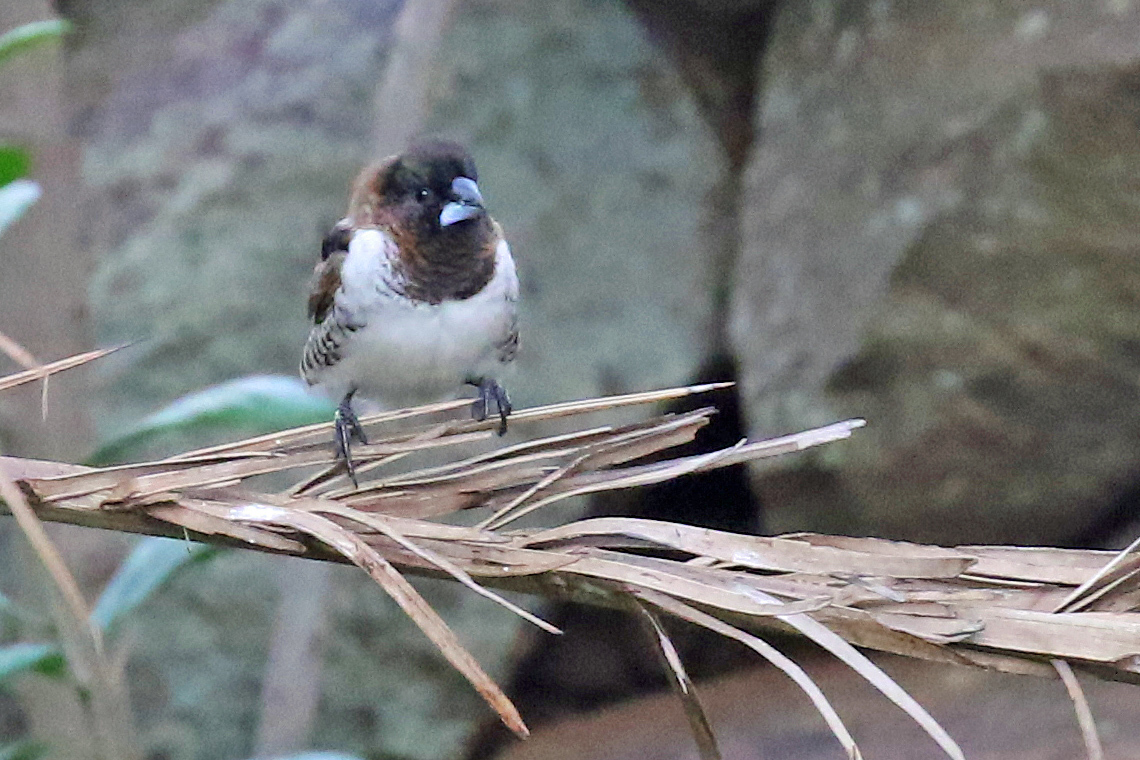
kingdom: Animalia
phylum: Chordata
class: Aves
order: Passeriformes
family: Estrildidae
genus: Lonchura
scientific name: Lonchura cucullata
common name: Bronze mannikin
